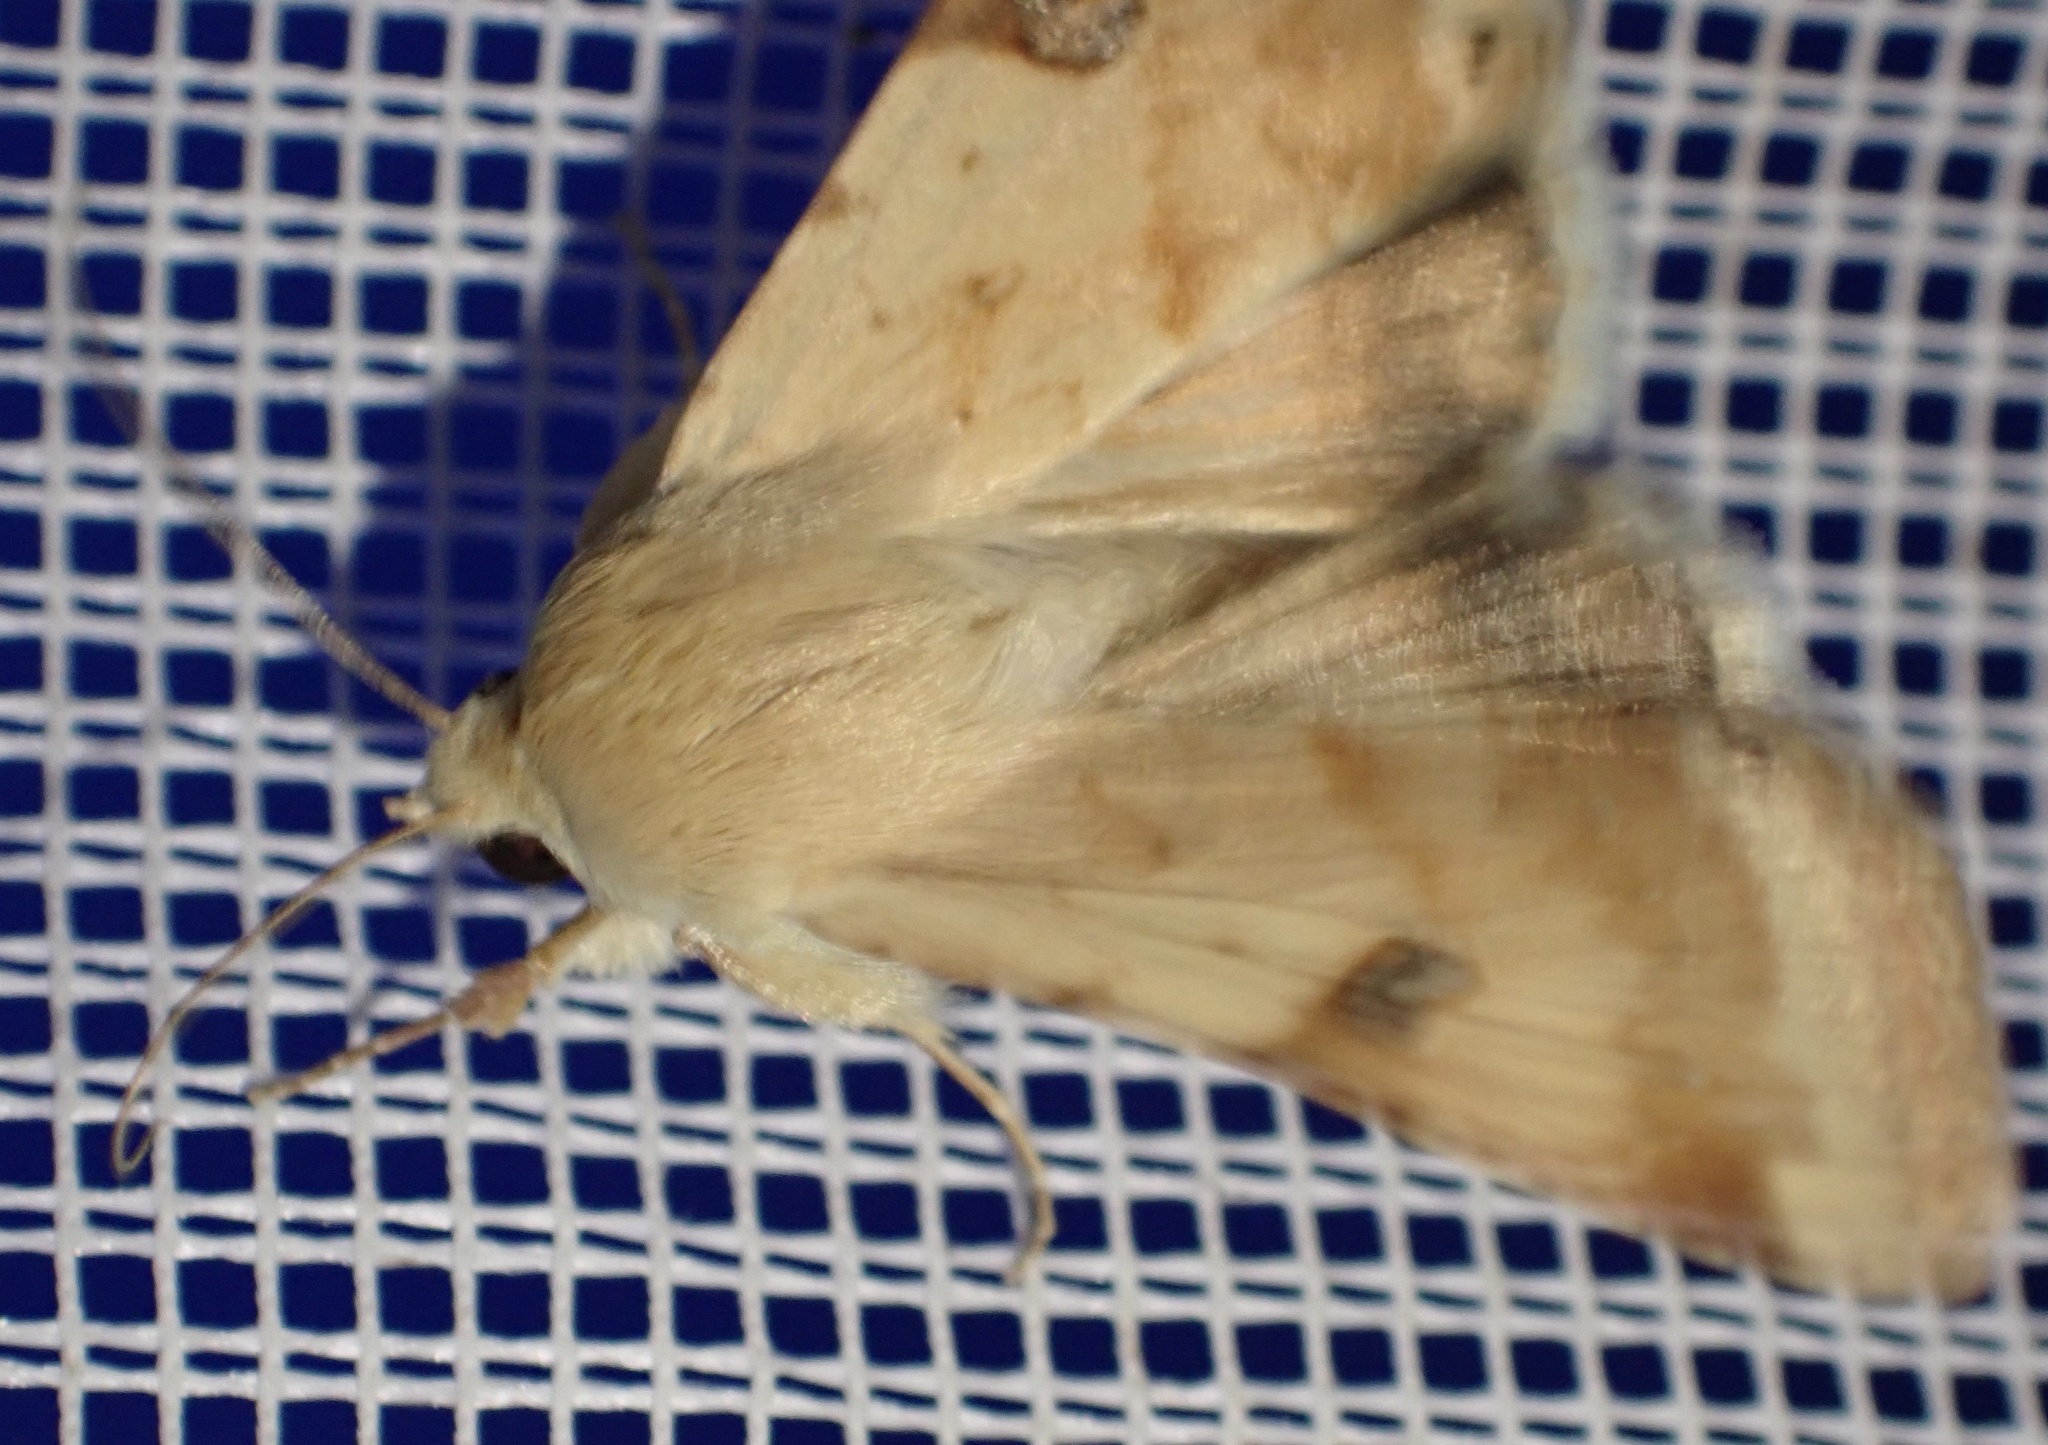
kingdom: Animalia
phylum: Arthropoda
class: Insecta
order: Lepidoptera
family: Noctuidae
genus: Heliothis
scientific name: Heliothis peltigera
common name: Bordered straw
